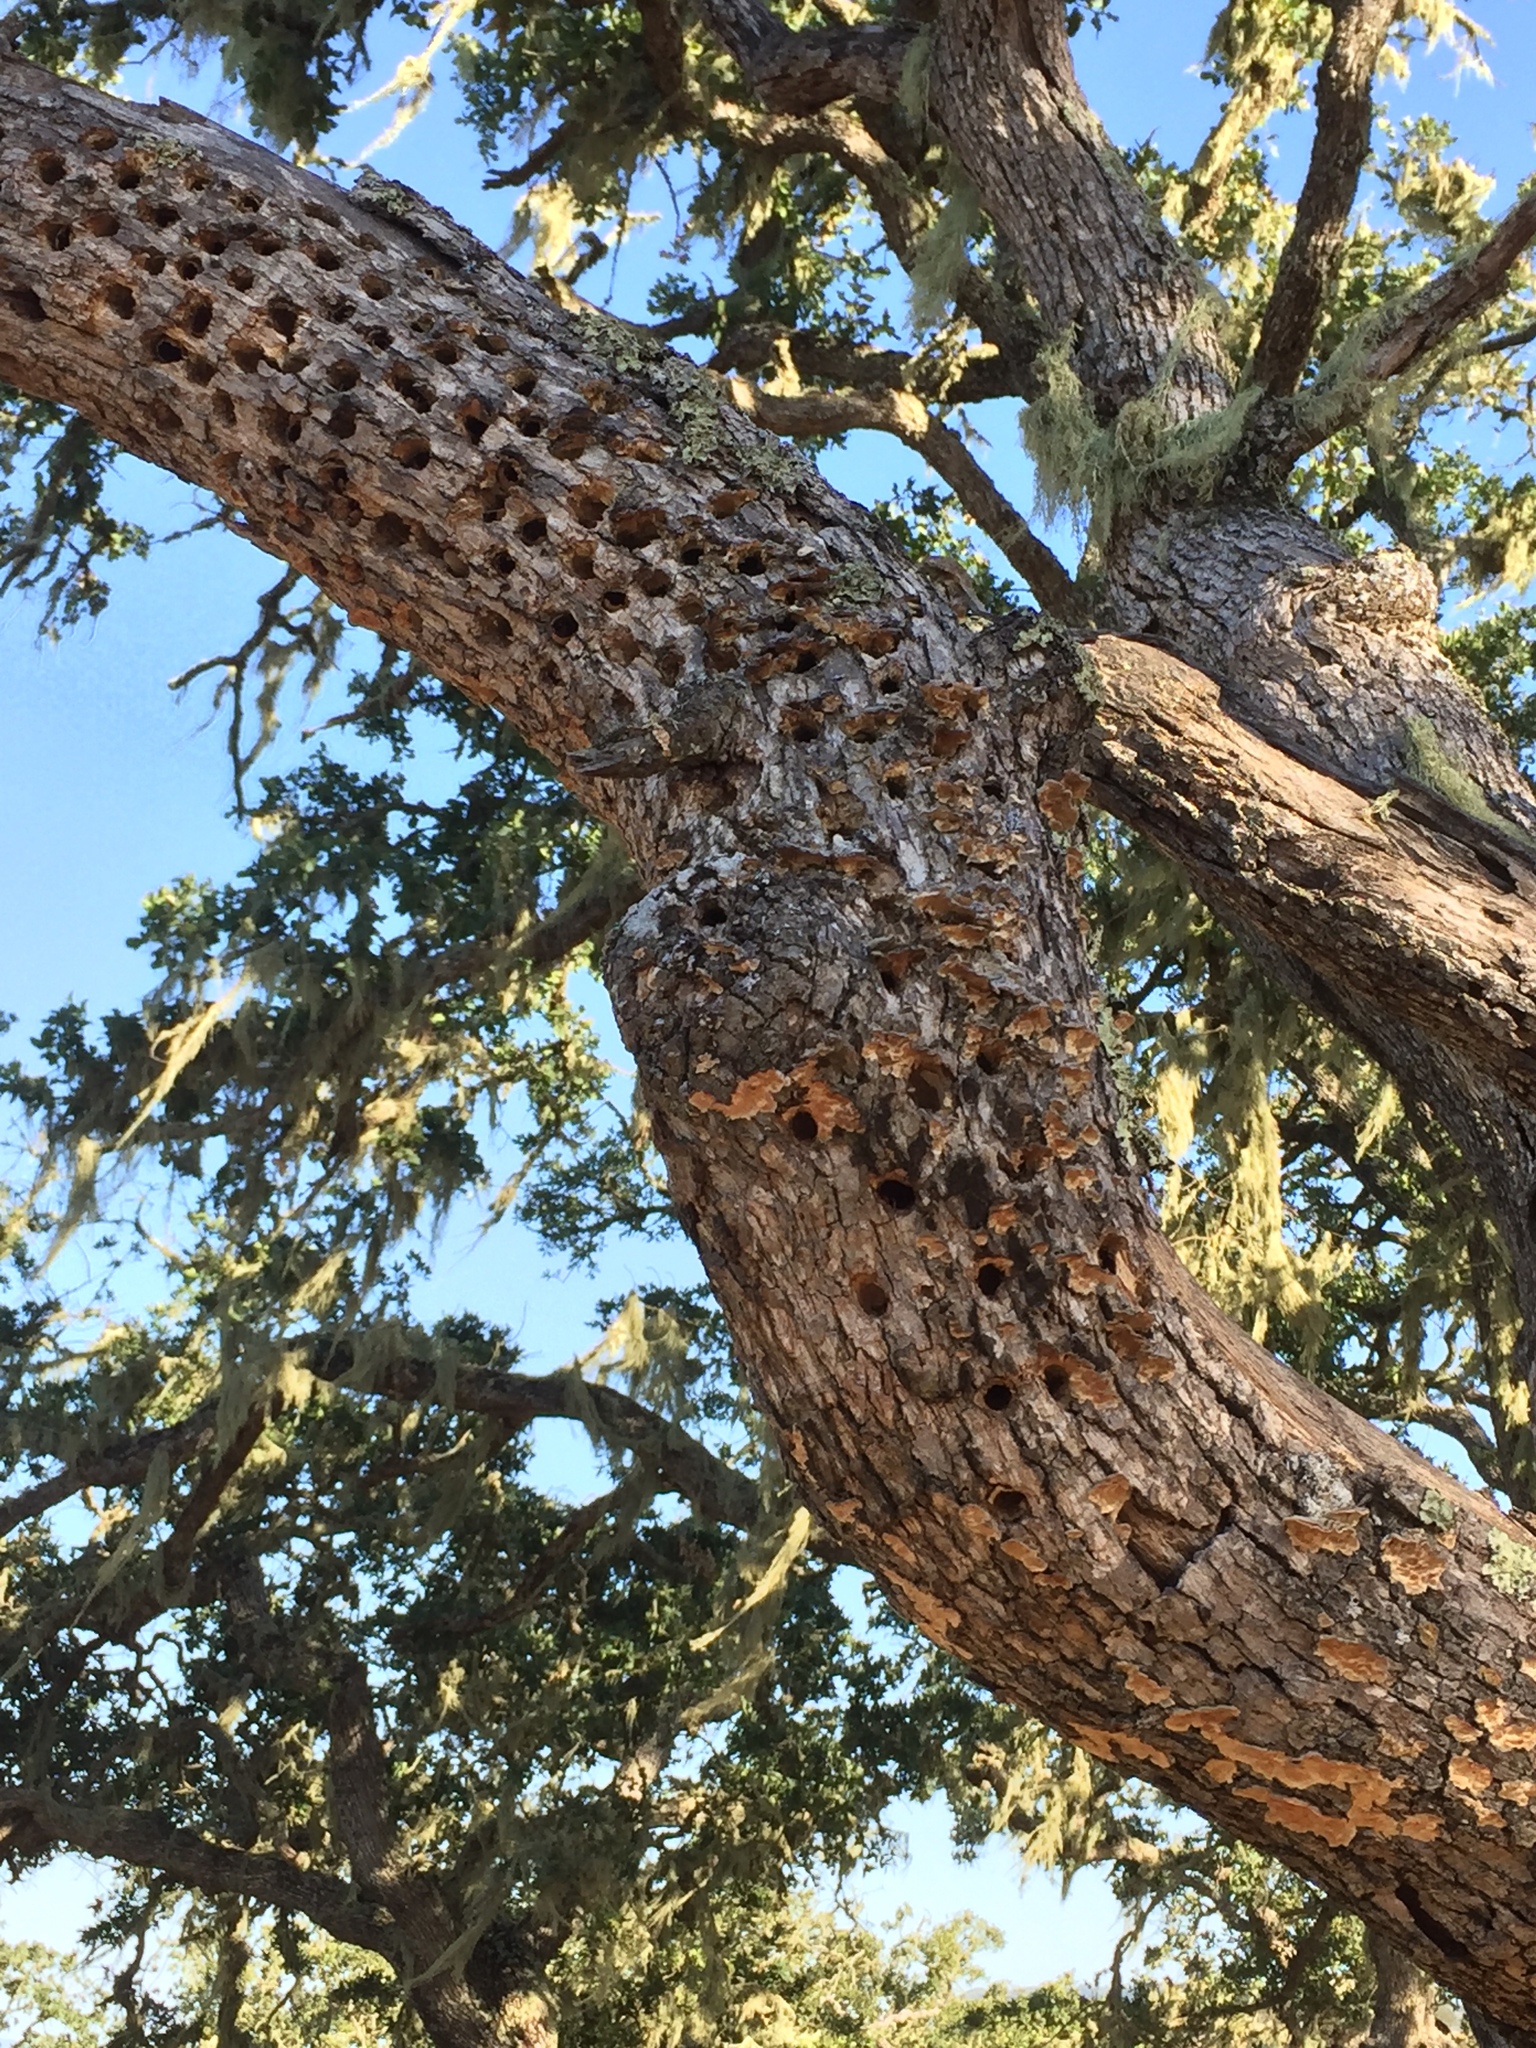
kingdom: Animalia
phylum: Chordata
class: Aves
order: Piciformes
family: Picidae
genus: Melanerpes
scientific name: Melanerpes formicivorus
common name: Acorn woodpecker
